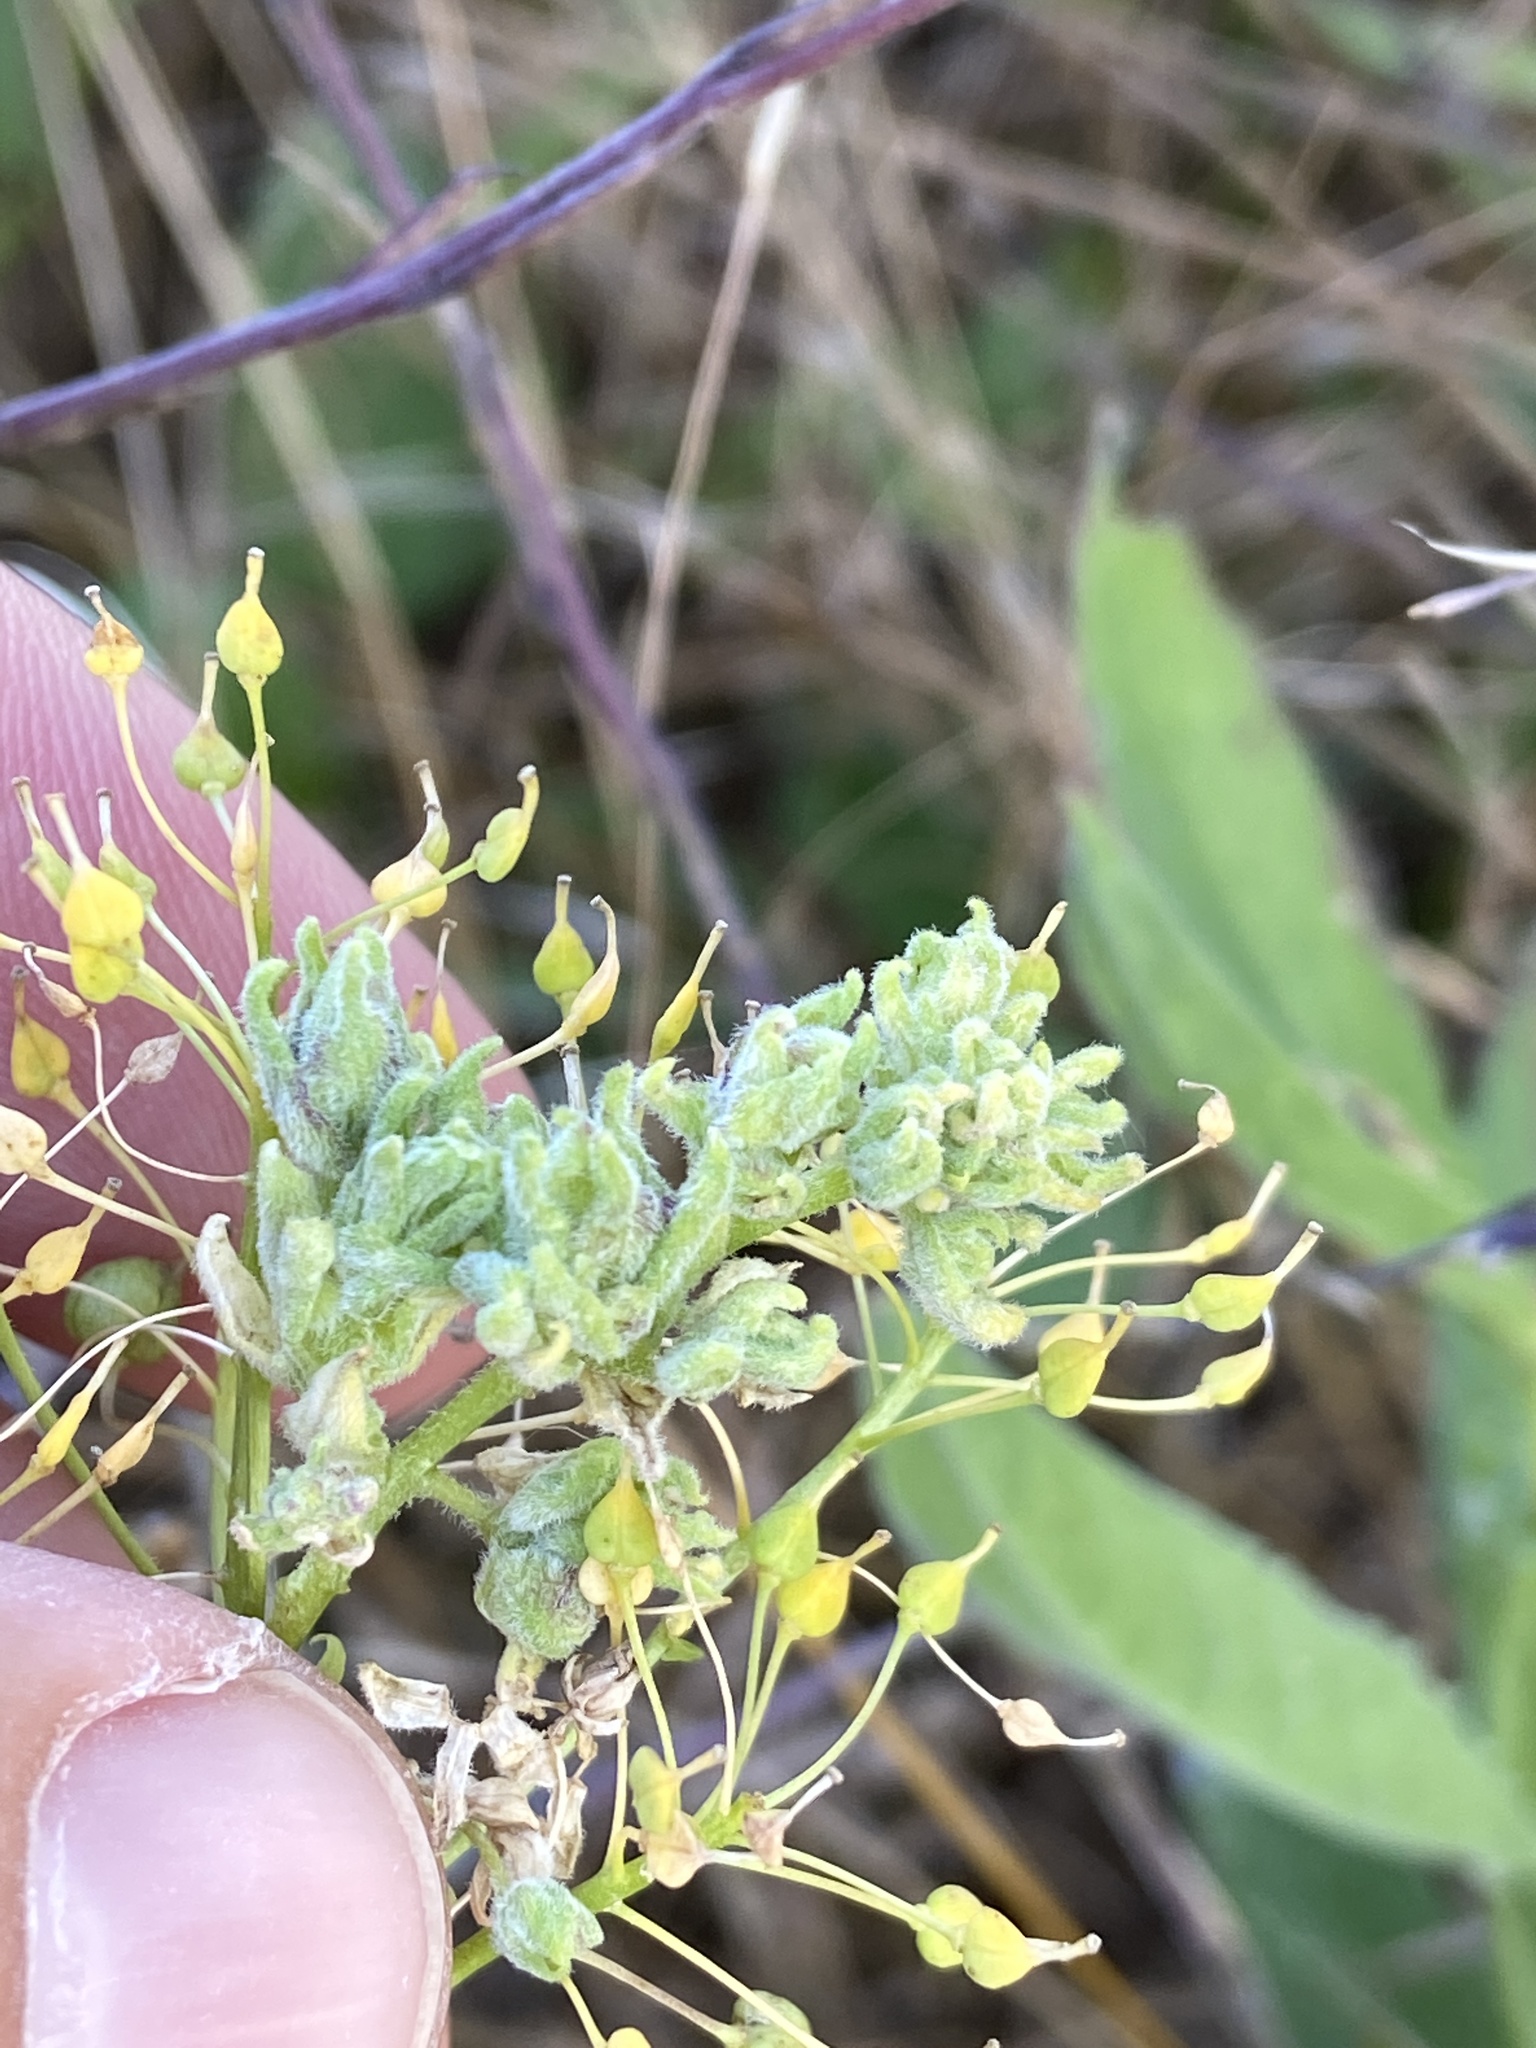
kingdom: Plantae
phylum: Tracheophyta
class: Magnoliopsida
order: Brassicales
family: Brassicaceae
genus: Lepidium
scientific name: Lepidium draba
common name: Hoary cress
